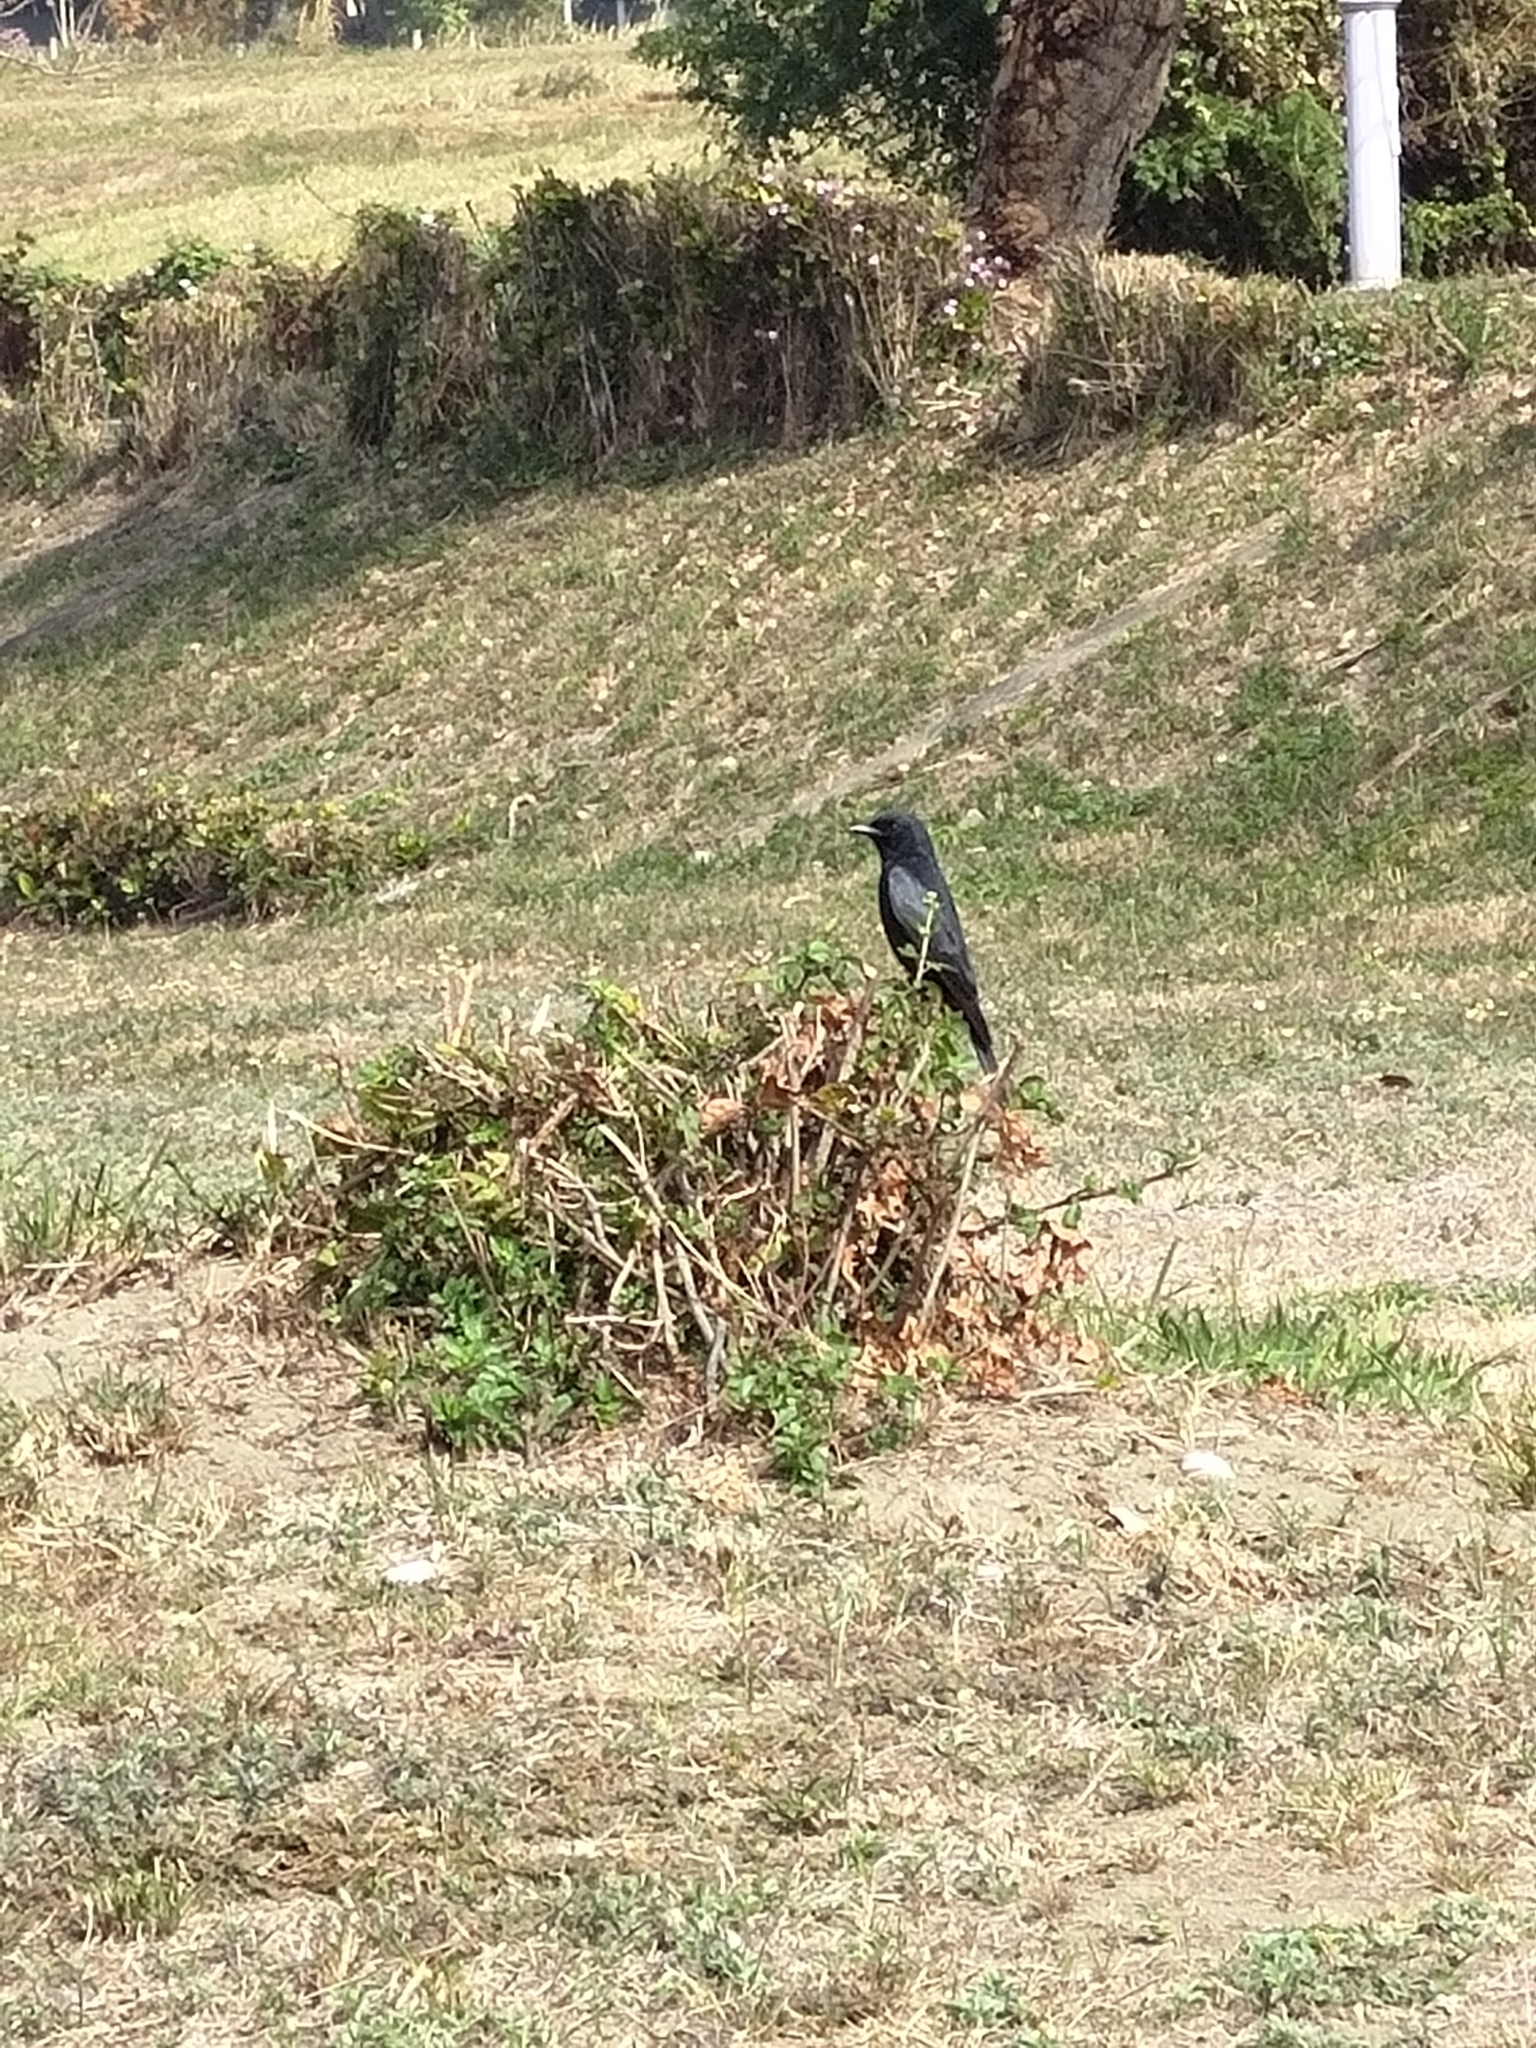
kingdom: Animalia
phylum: Chordata
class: Aves
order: Passeriformes
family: Dicruridae
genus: Dicrurus
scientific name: Dicrurus macrocercus
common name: Black drongo
